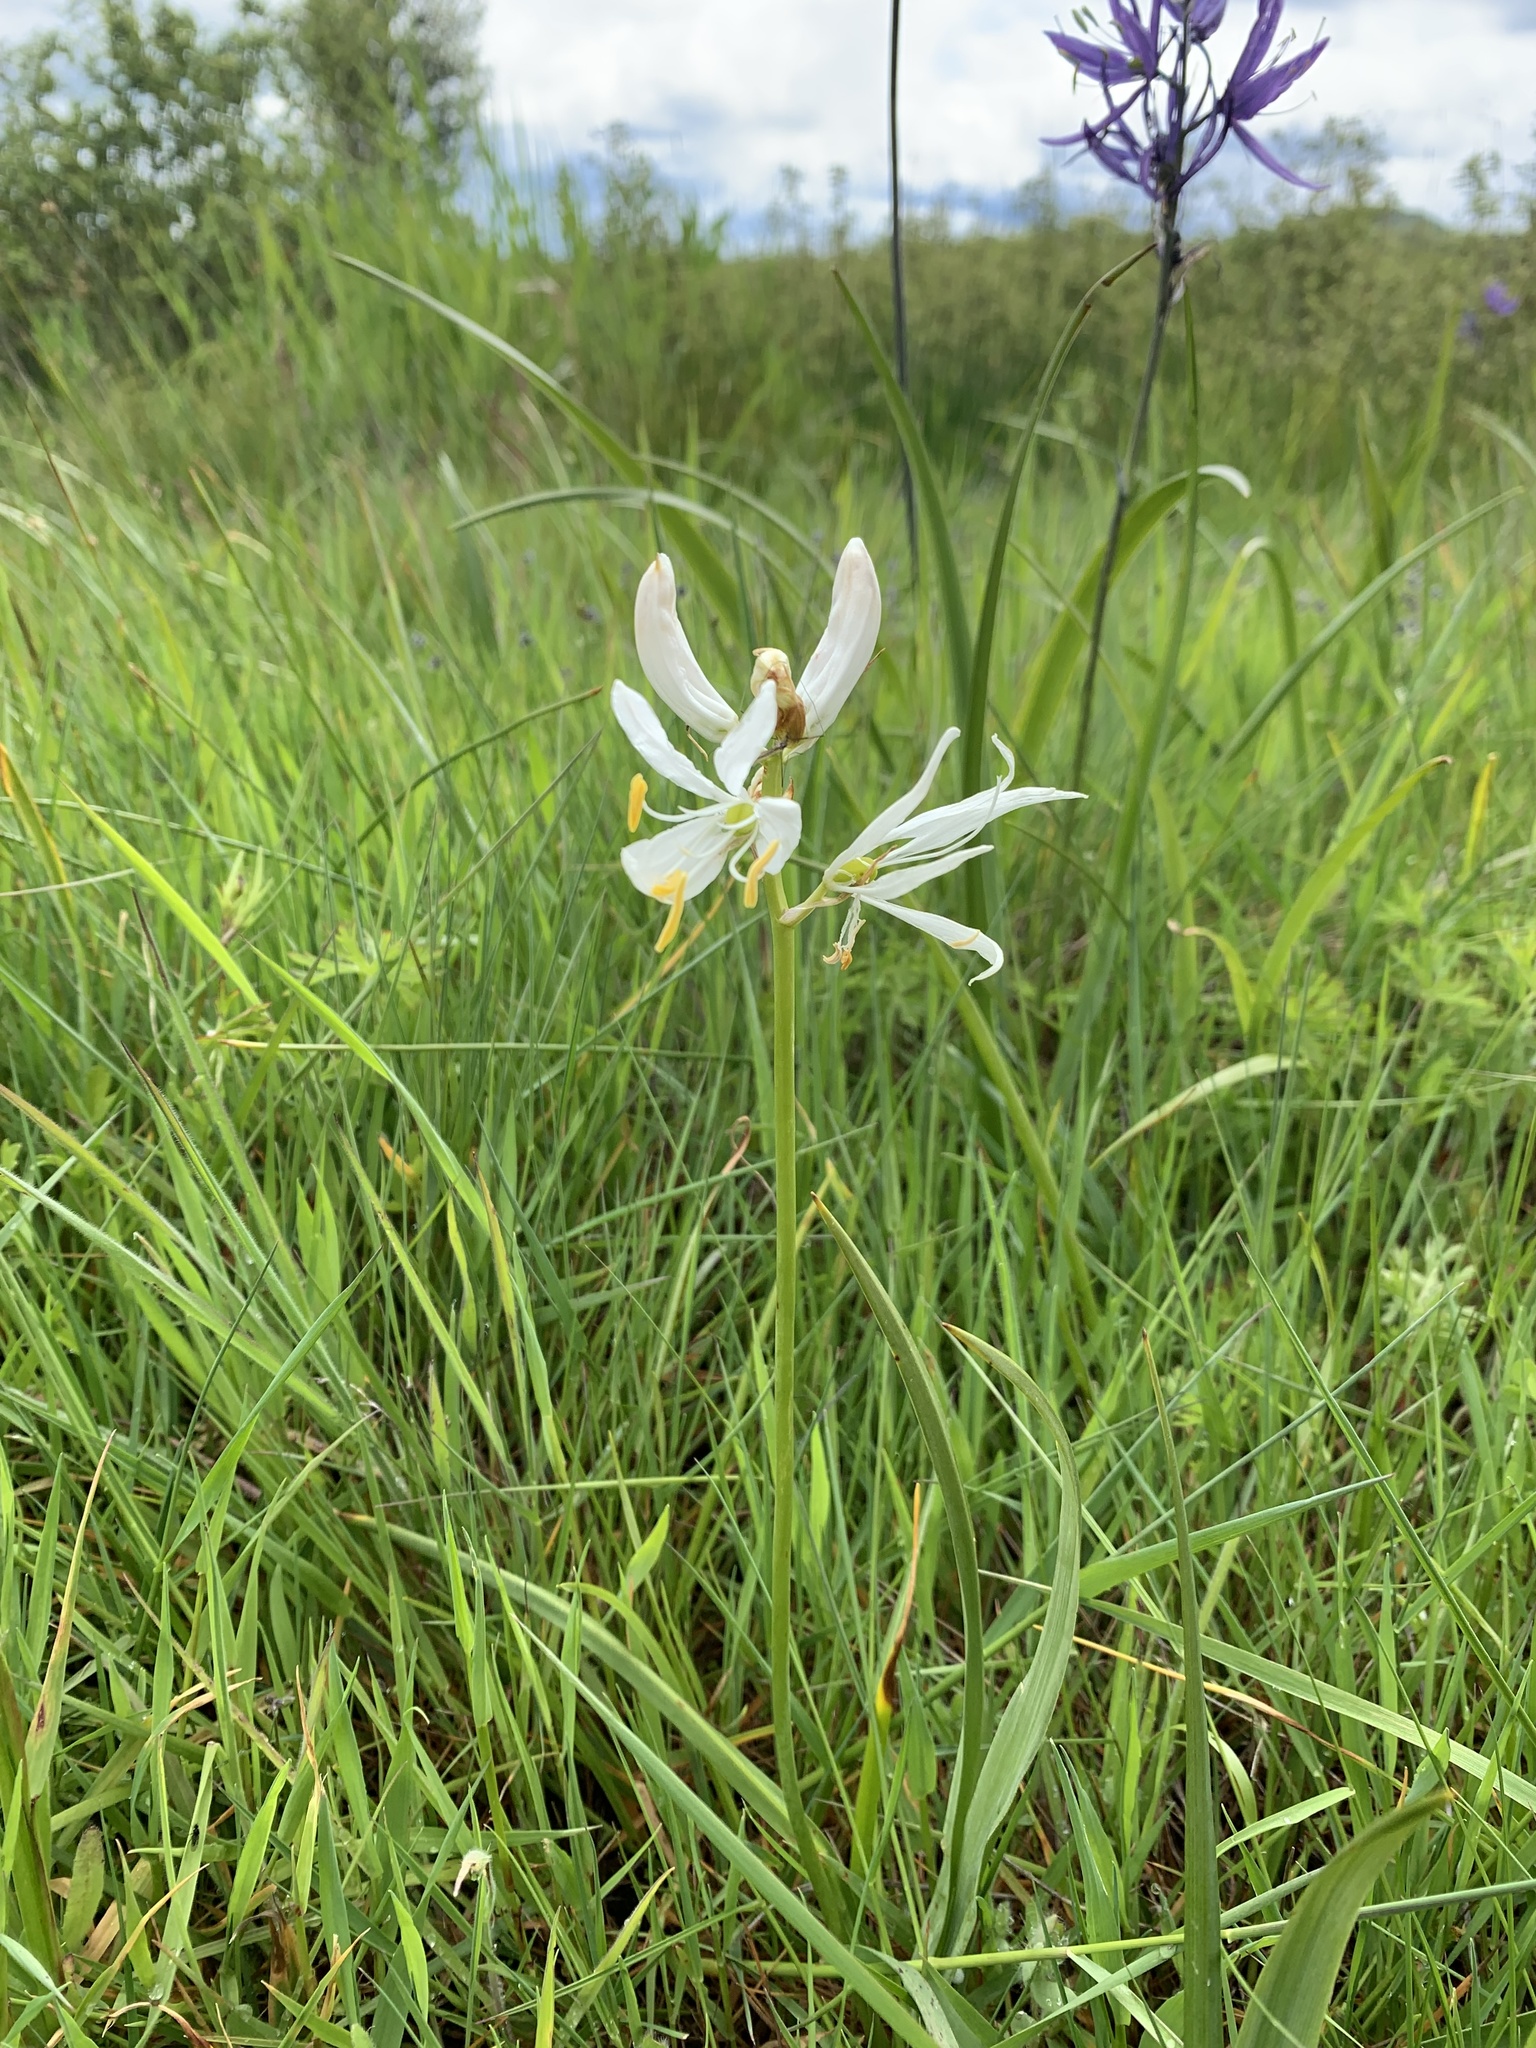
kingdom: Plantae
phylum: Tracheophyta
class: Liliopsida
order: Asparagales
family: Asparagaceae
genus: Camassia
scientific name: Camassia quamash
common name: Common camas
